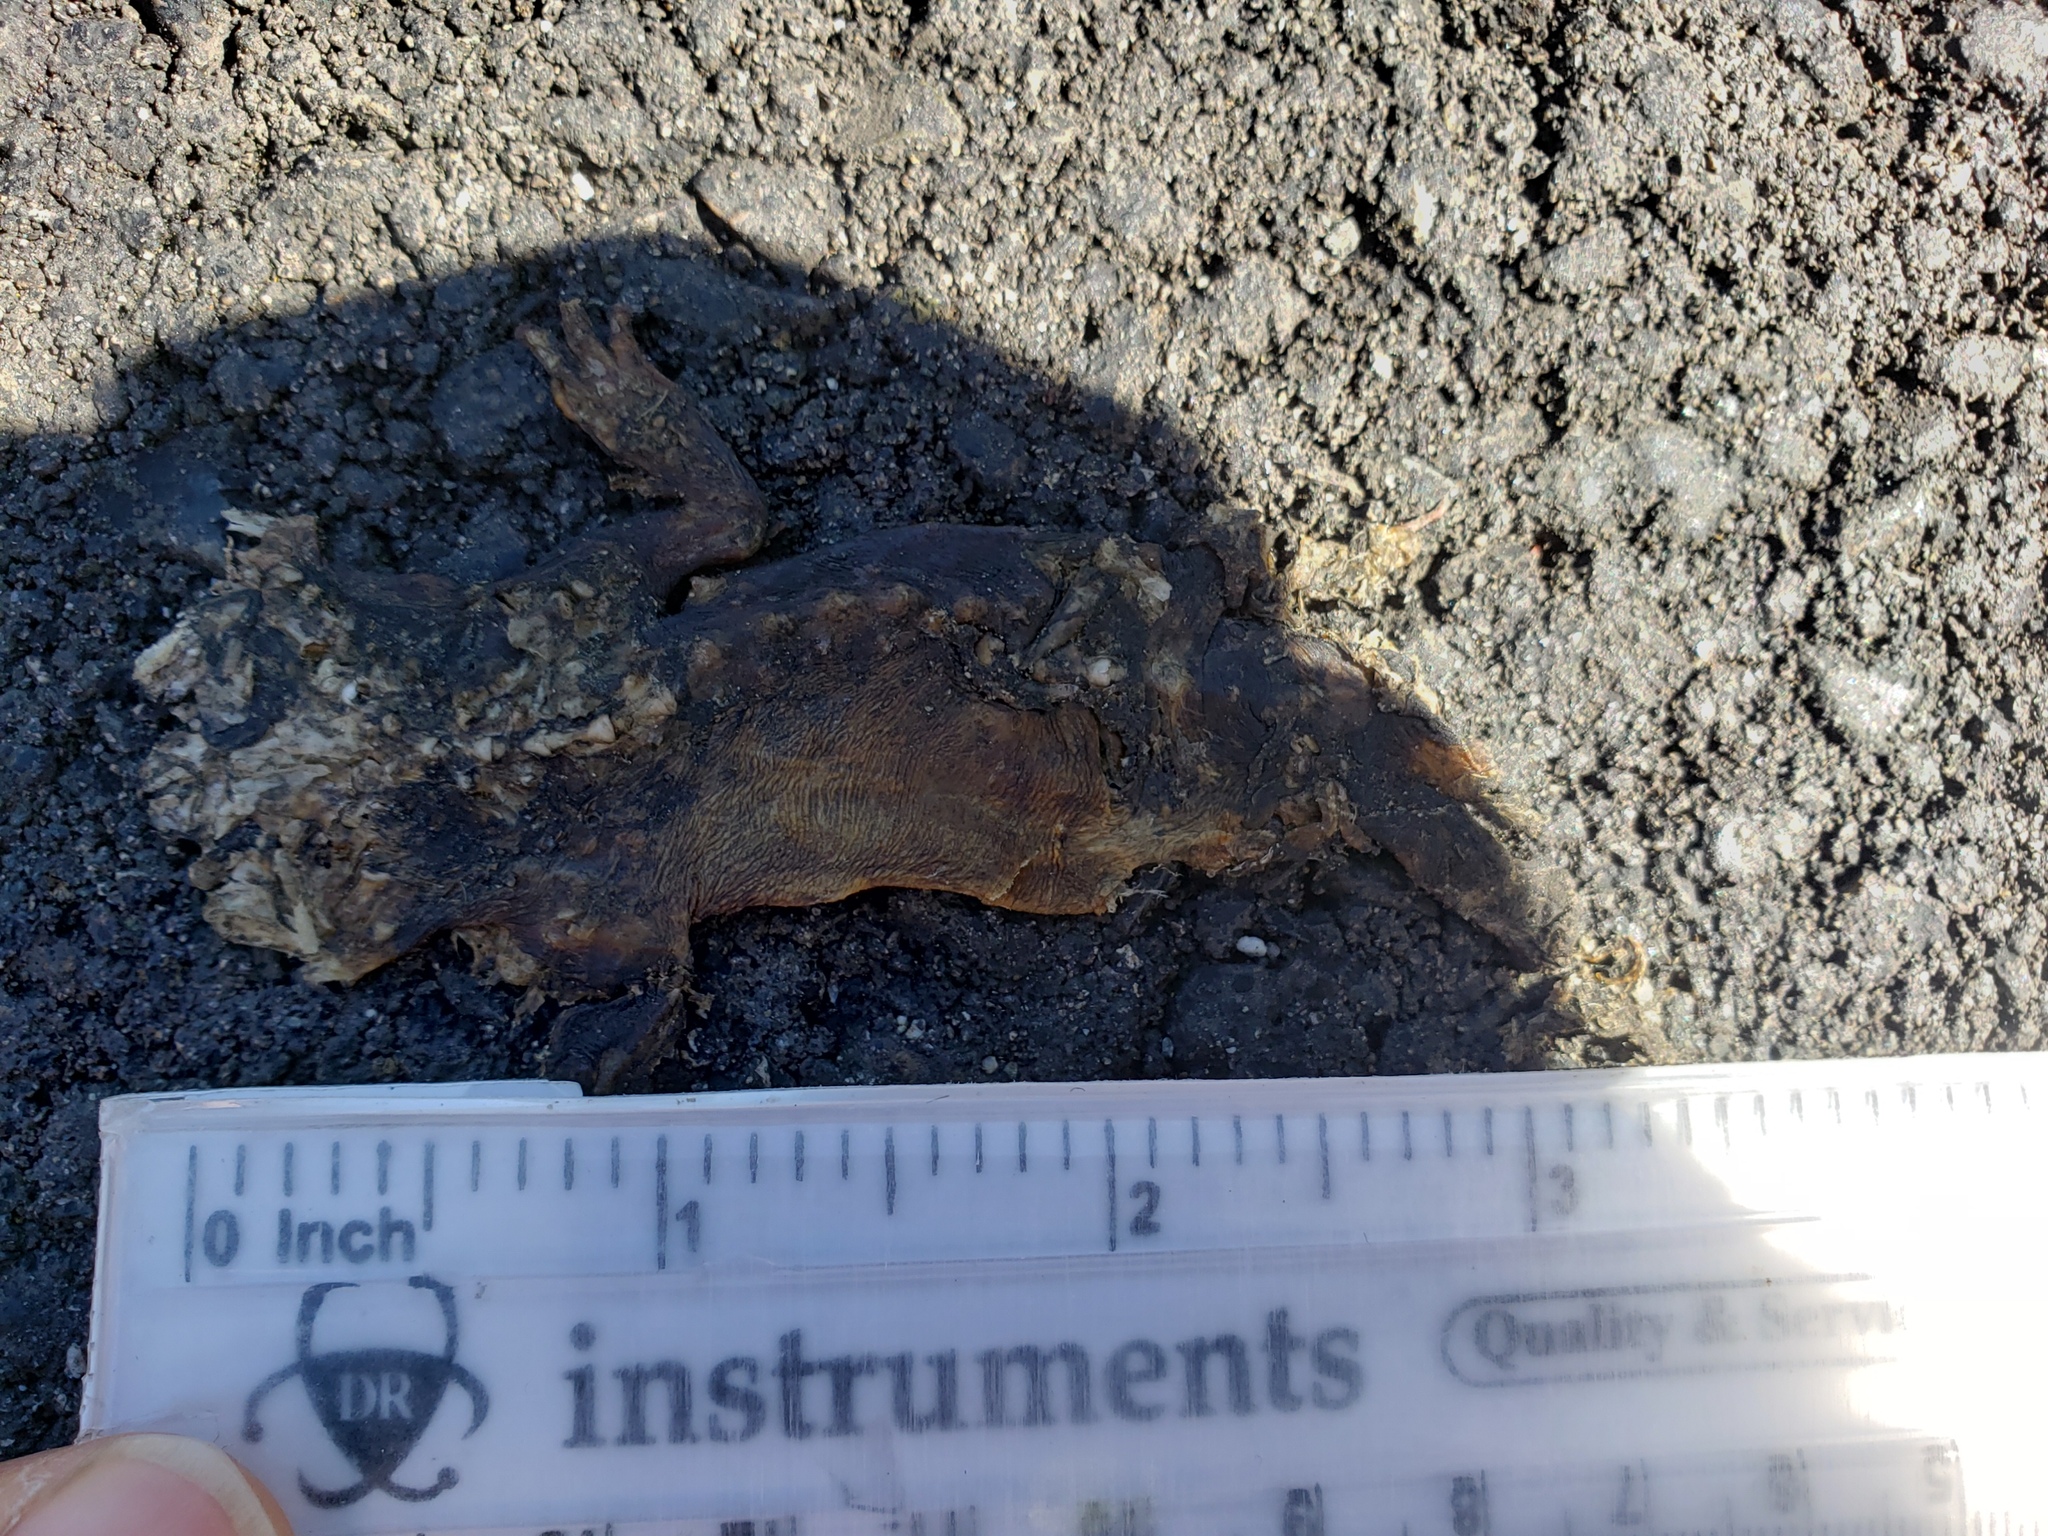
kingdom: Animalia
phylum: Chordata
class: Amphibia
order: Caudata
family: Salamandridae
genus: Taricha
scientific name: Taricha
